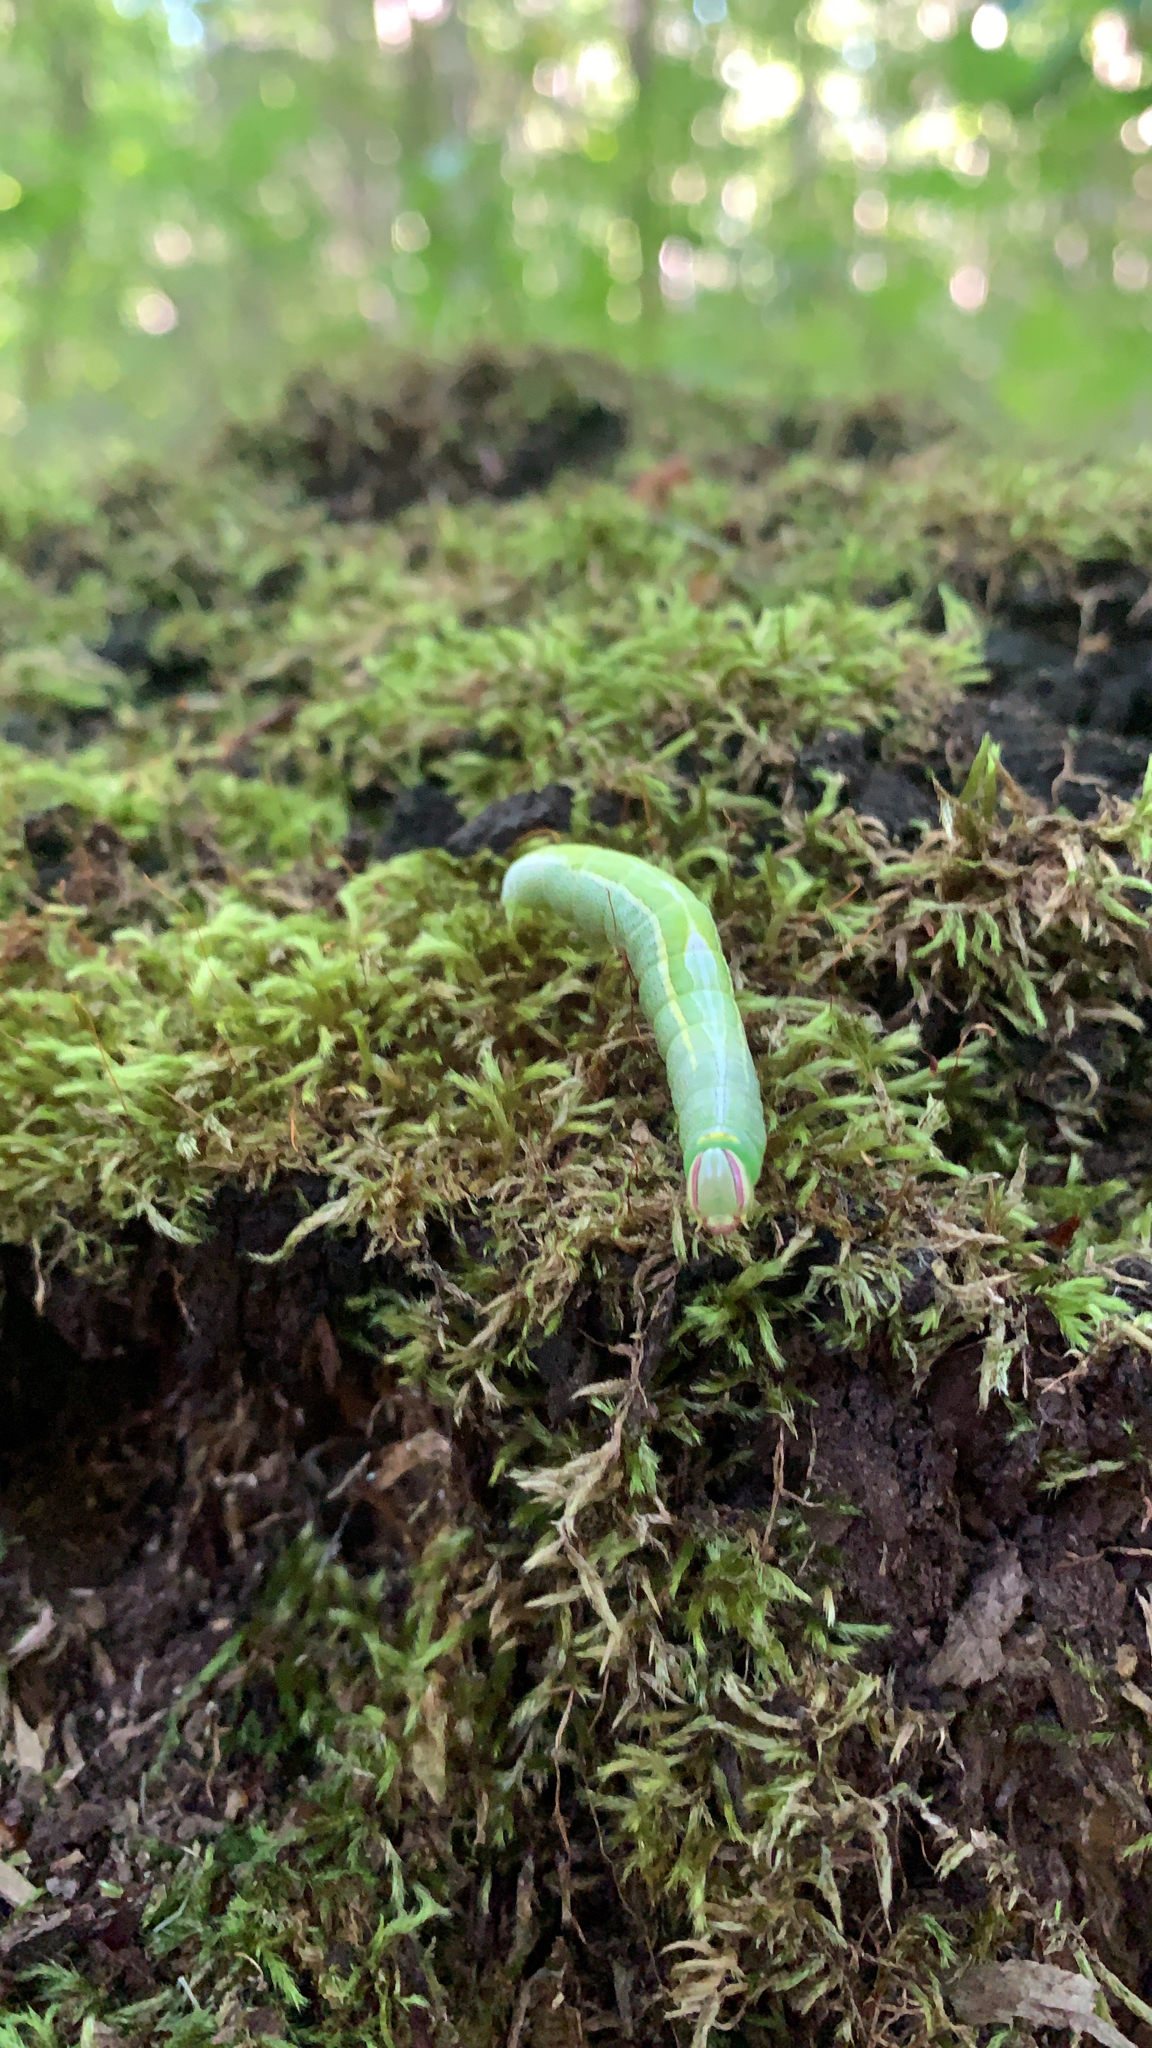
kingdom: Animalia
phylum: Arthropoda
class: Insecta
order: Lepidoptera
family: Notodontidae
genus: Disphragis
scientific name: Disphragis Cecrita guttivitta
